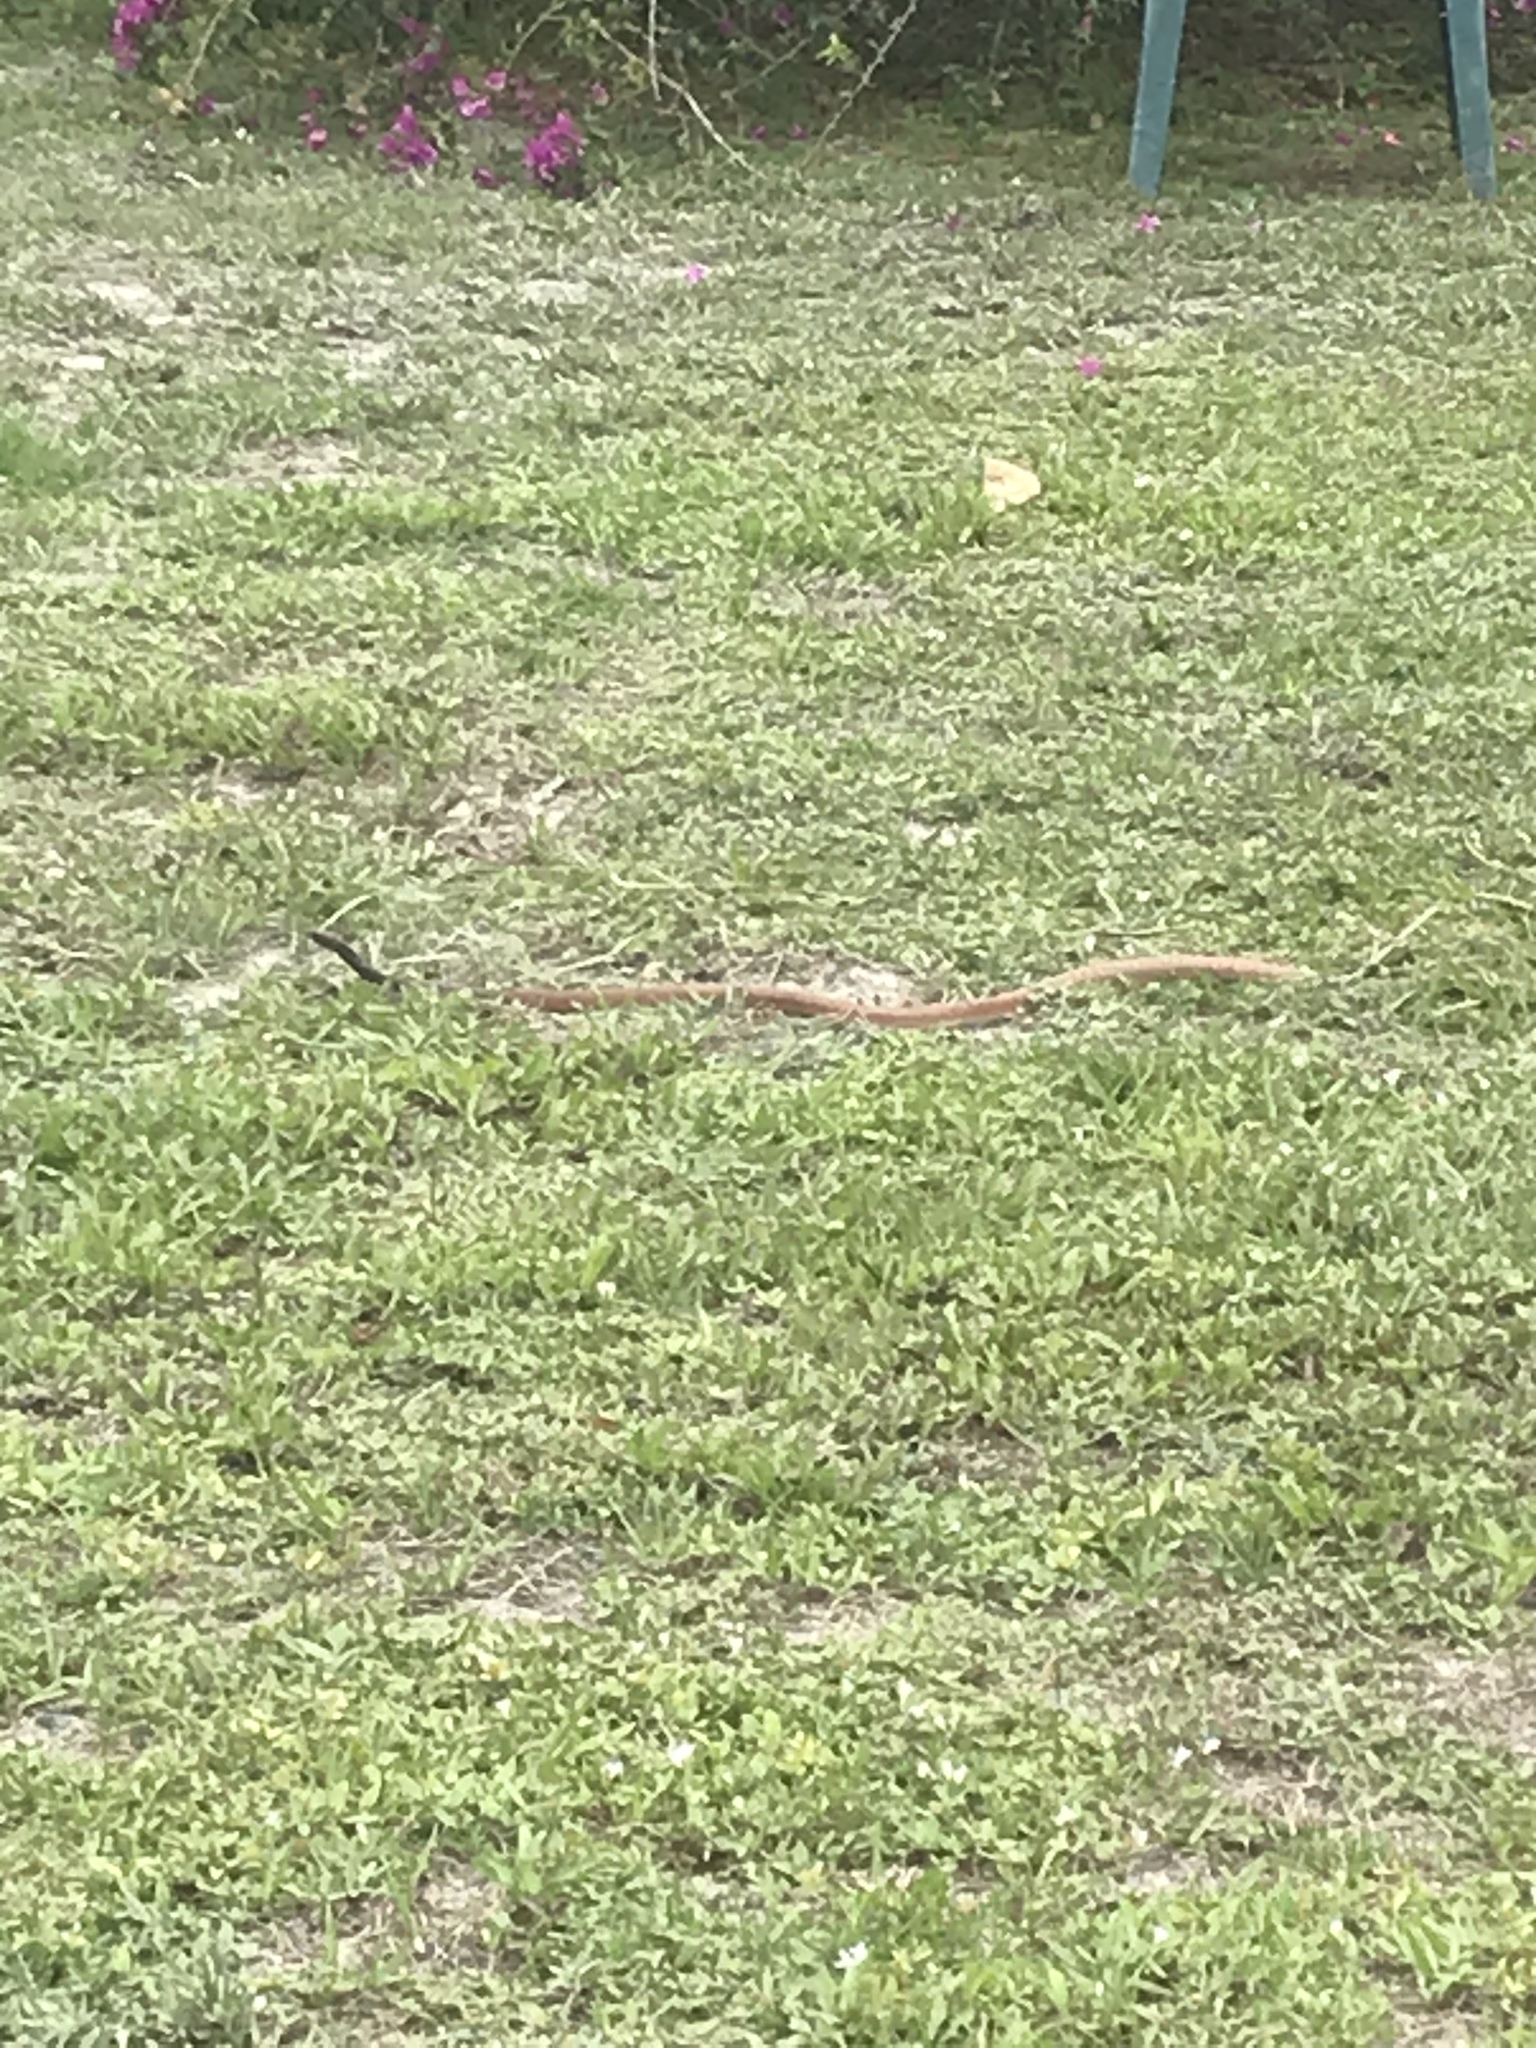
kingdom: Animalia
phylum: Chordata
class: Squamata
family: Colubridae
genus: Masticophis
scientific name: Masticophis flagellum
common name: Coachwhip
